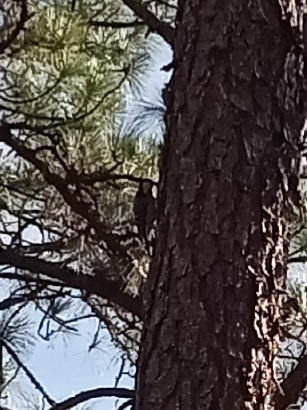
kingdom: Animalia
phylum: Chordata
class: Aves
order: Piciformes
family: Picidae
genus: Leuconotopicus
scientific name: Leuconotopicus borealis
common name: Red-cockaded woodpecker
